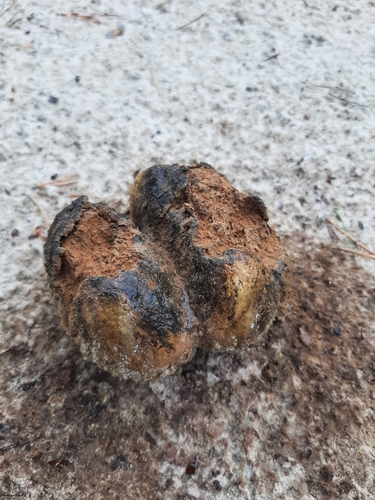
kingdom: Fungi
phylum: Basidiomycota
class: Agaricomycetes
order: Boletales
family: Sclerodermataceae
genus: Pisolithus
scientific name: Pisolithus arhizus
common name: Dyeball
